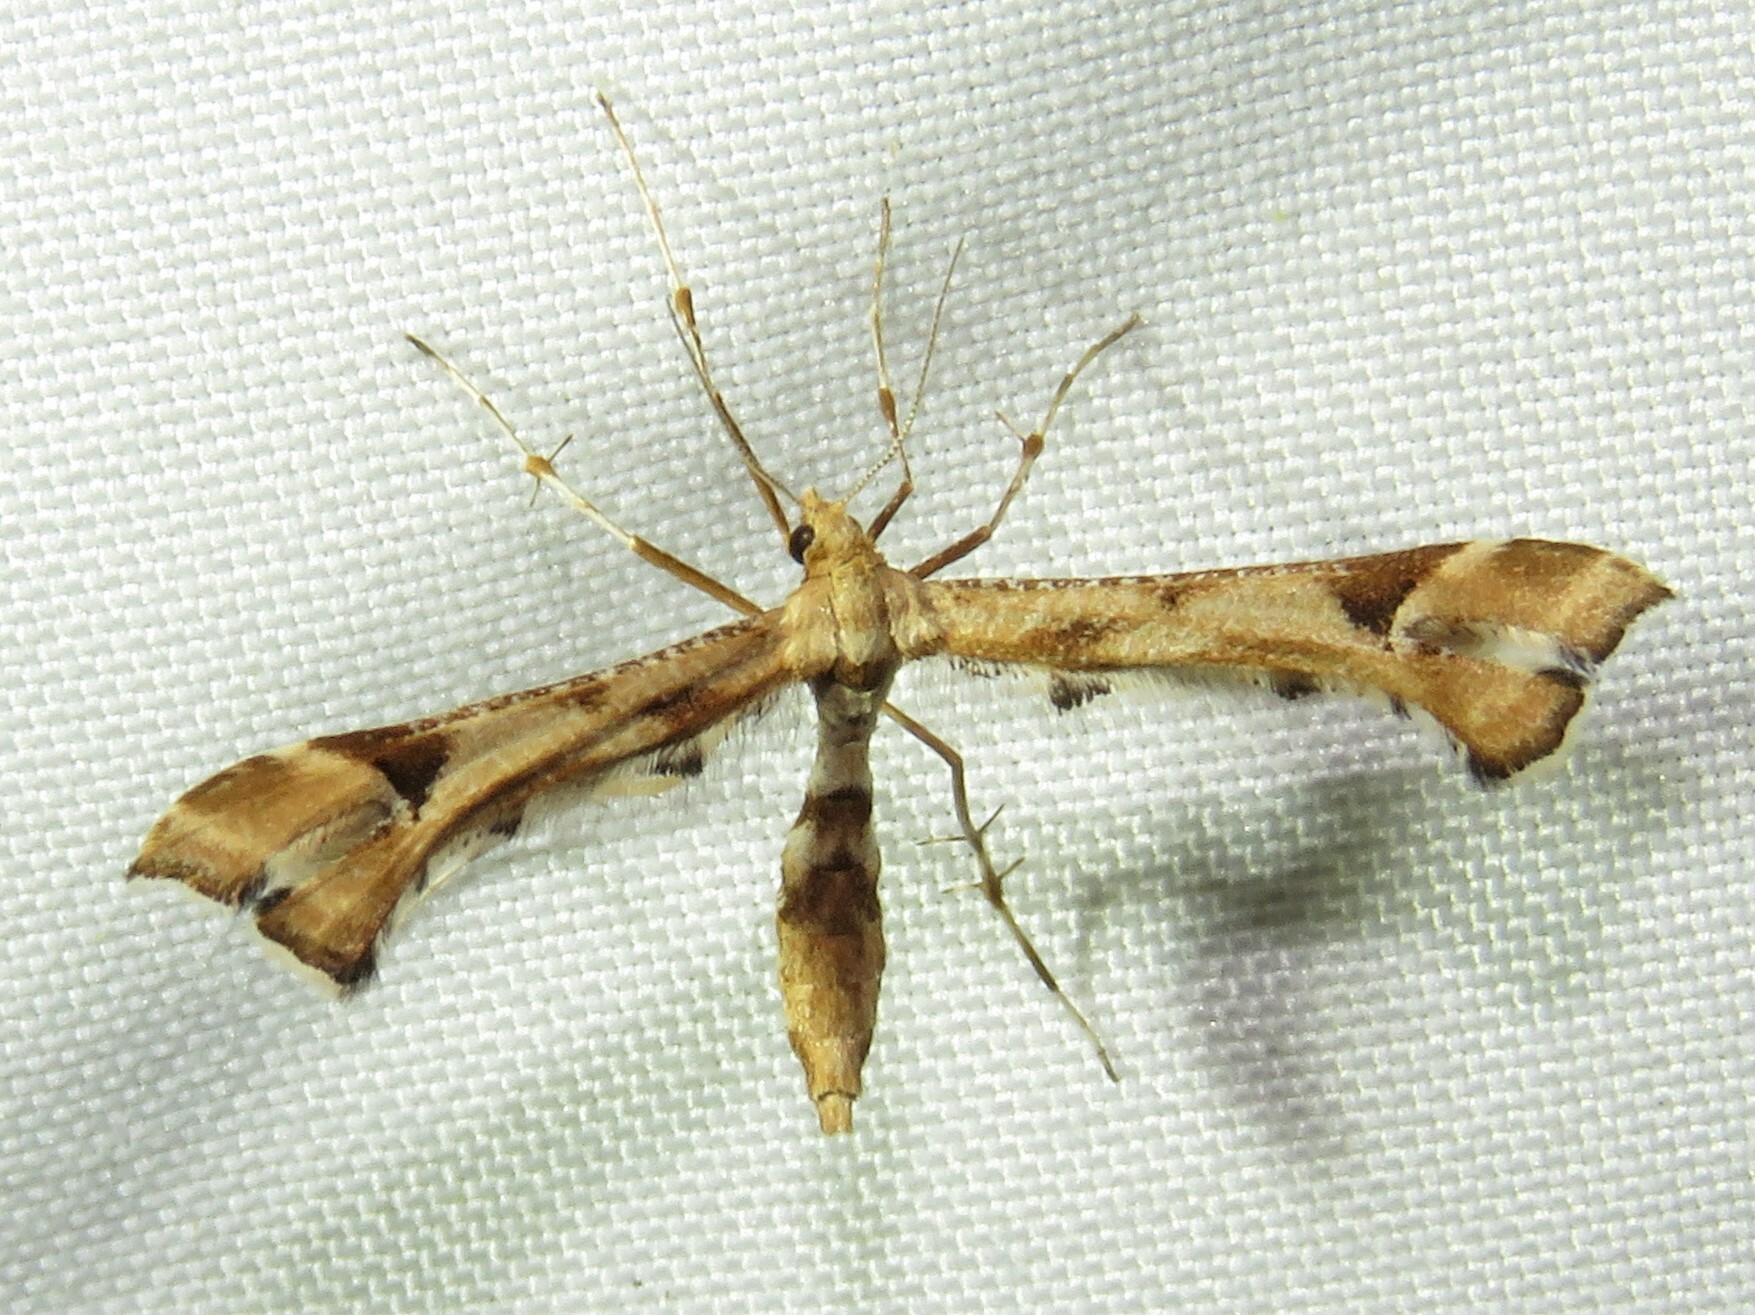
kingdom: Animalia
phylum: Arthropoda
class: Insecta
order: Lepidoptera
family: Pterophoridae
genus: Platyptilia
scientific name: Platyptilia carduidactylus
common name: Artichoke plume moth
